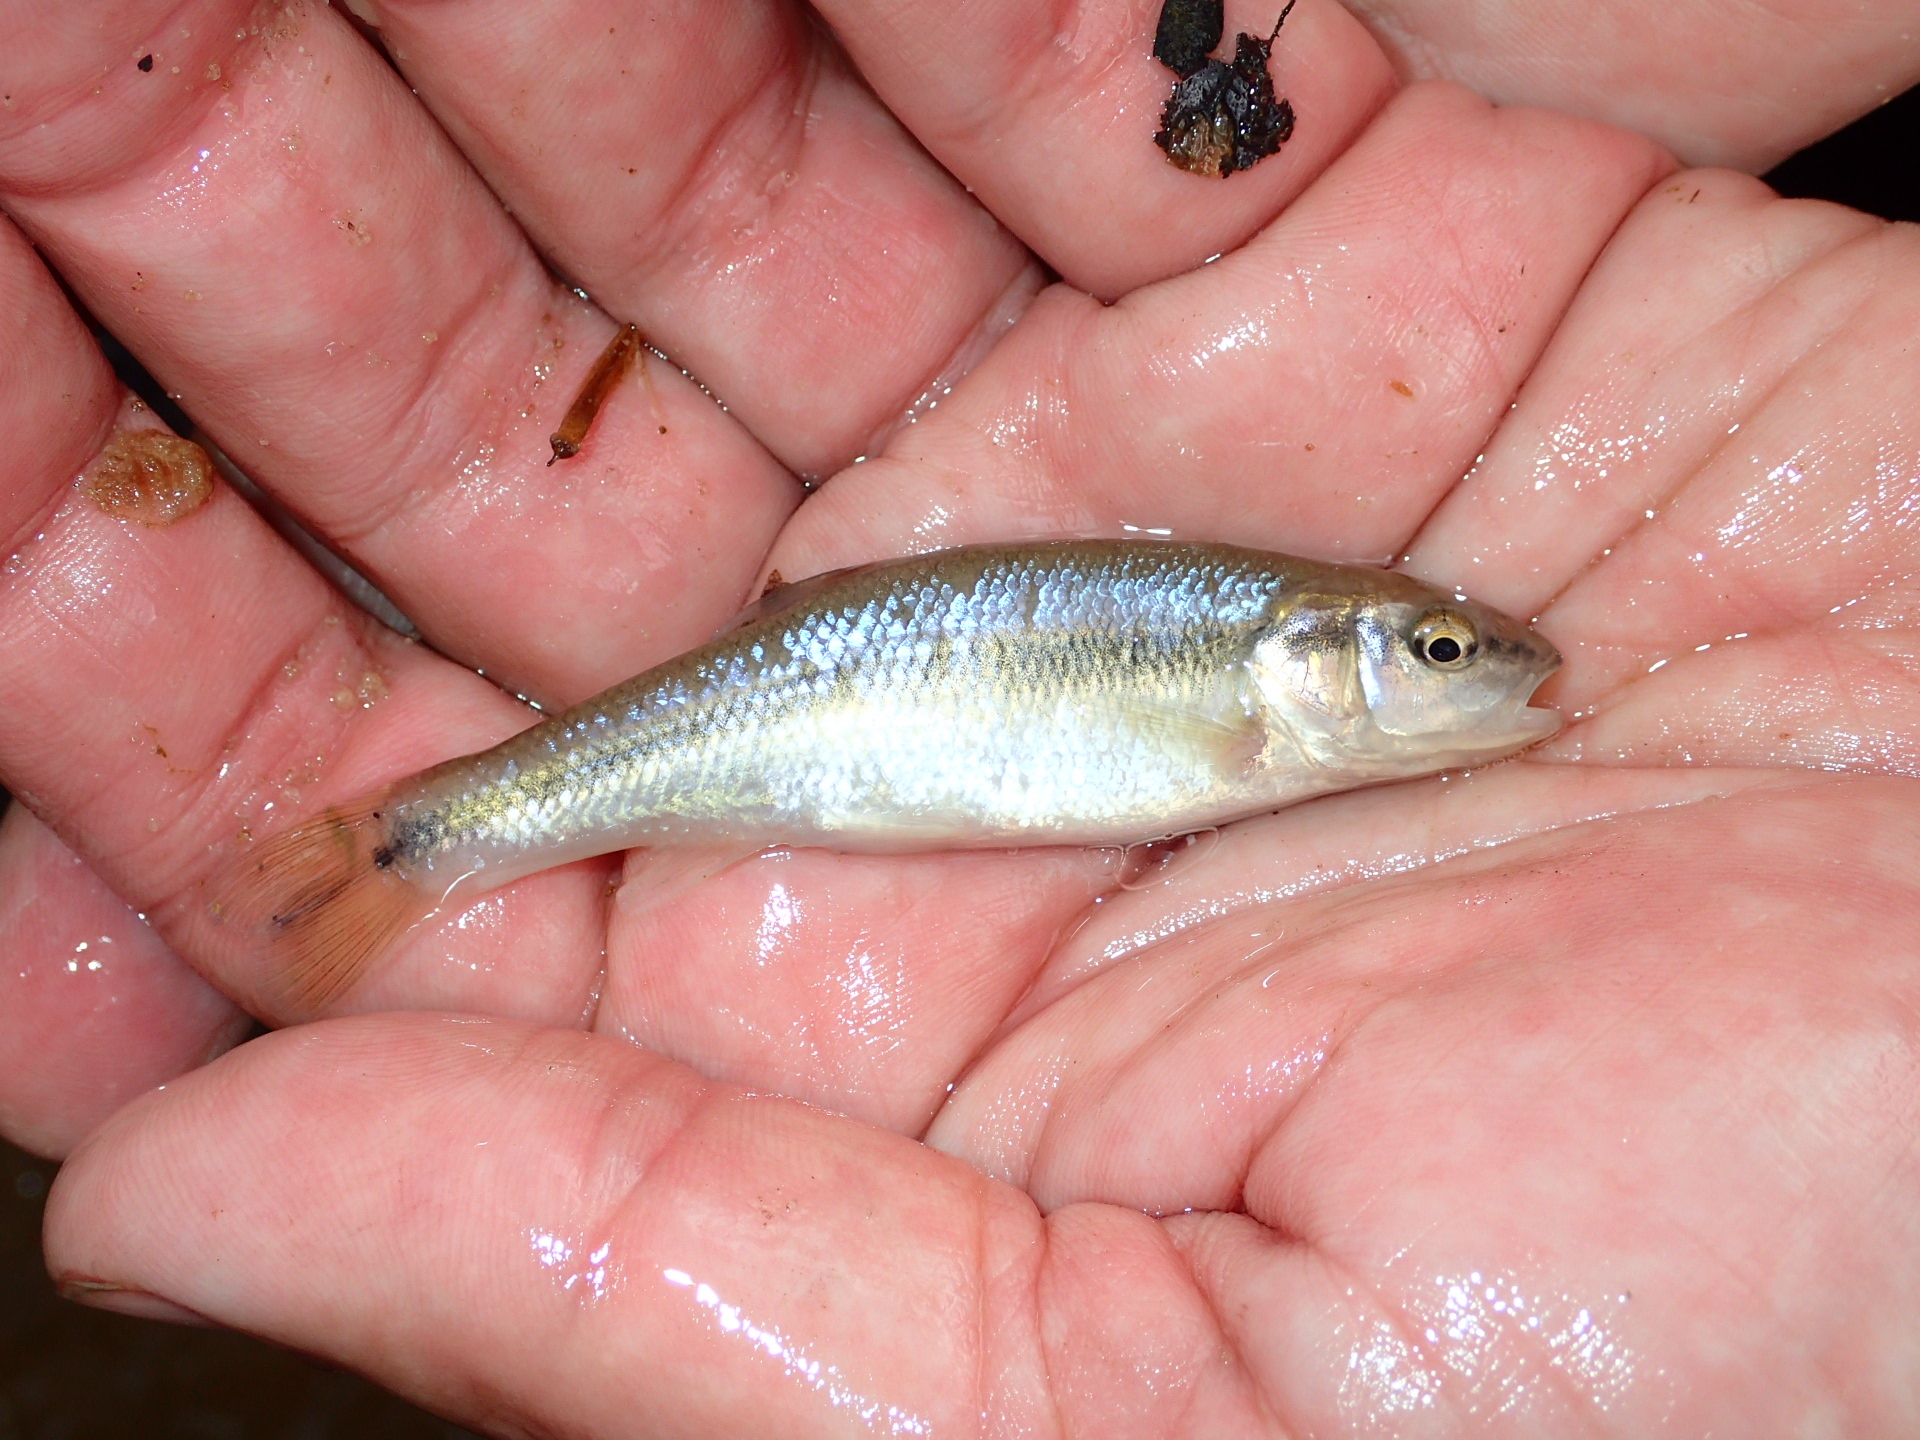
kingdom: Animalia
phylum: Chordata
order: Cypriniformes
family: Cyprinidae
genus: Semotilus
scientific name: Semotilus atromaculatus
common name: Creek chub
